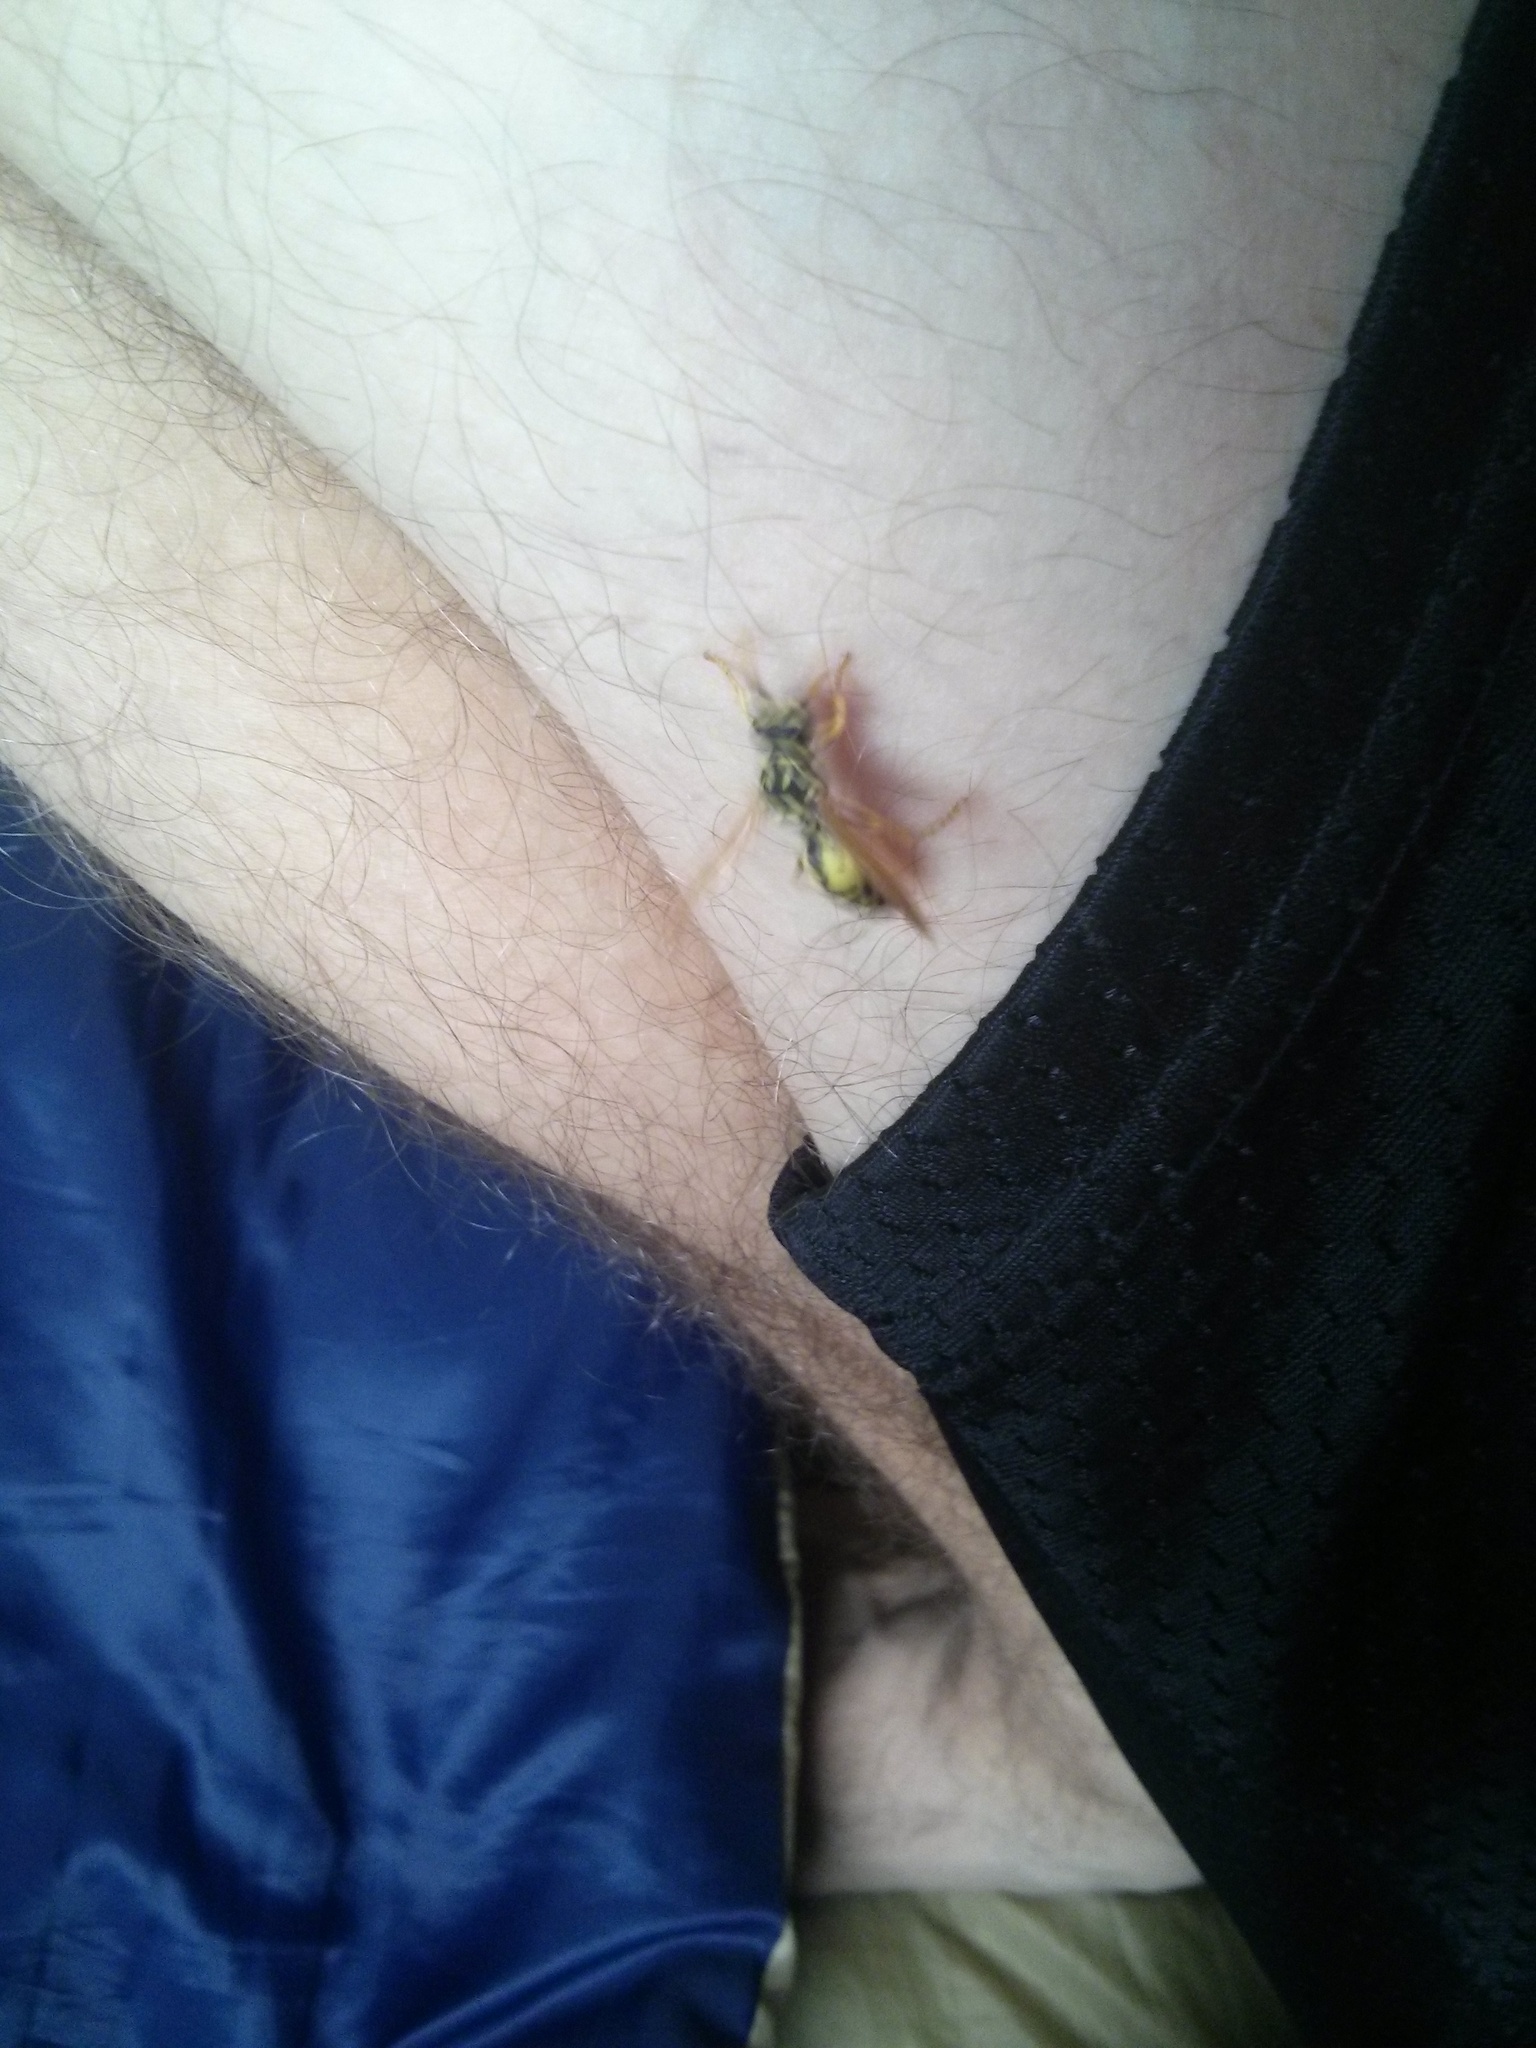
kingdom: Animalia
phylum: Arthropoda
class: Insecta
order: Hymenoptera
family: Eumenidae
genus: Polistes
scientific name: Polistes dominula
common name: Paper wasp
